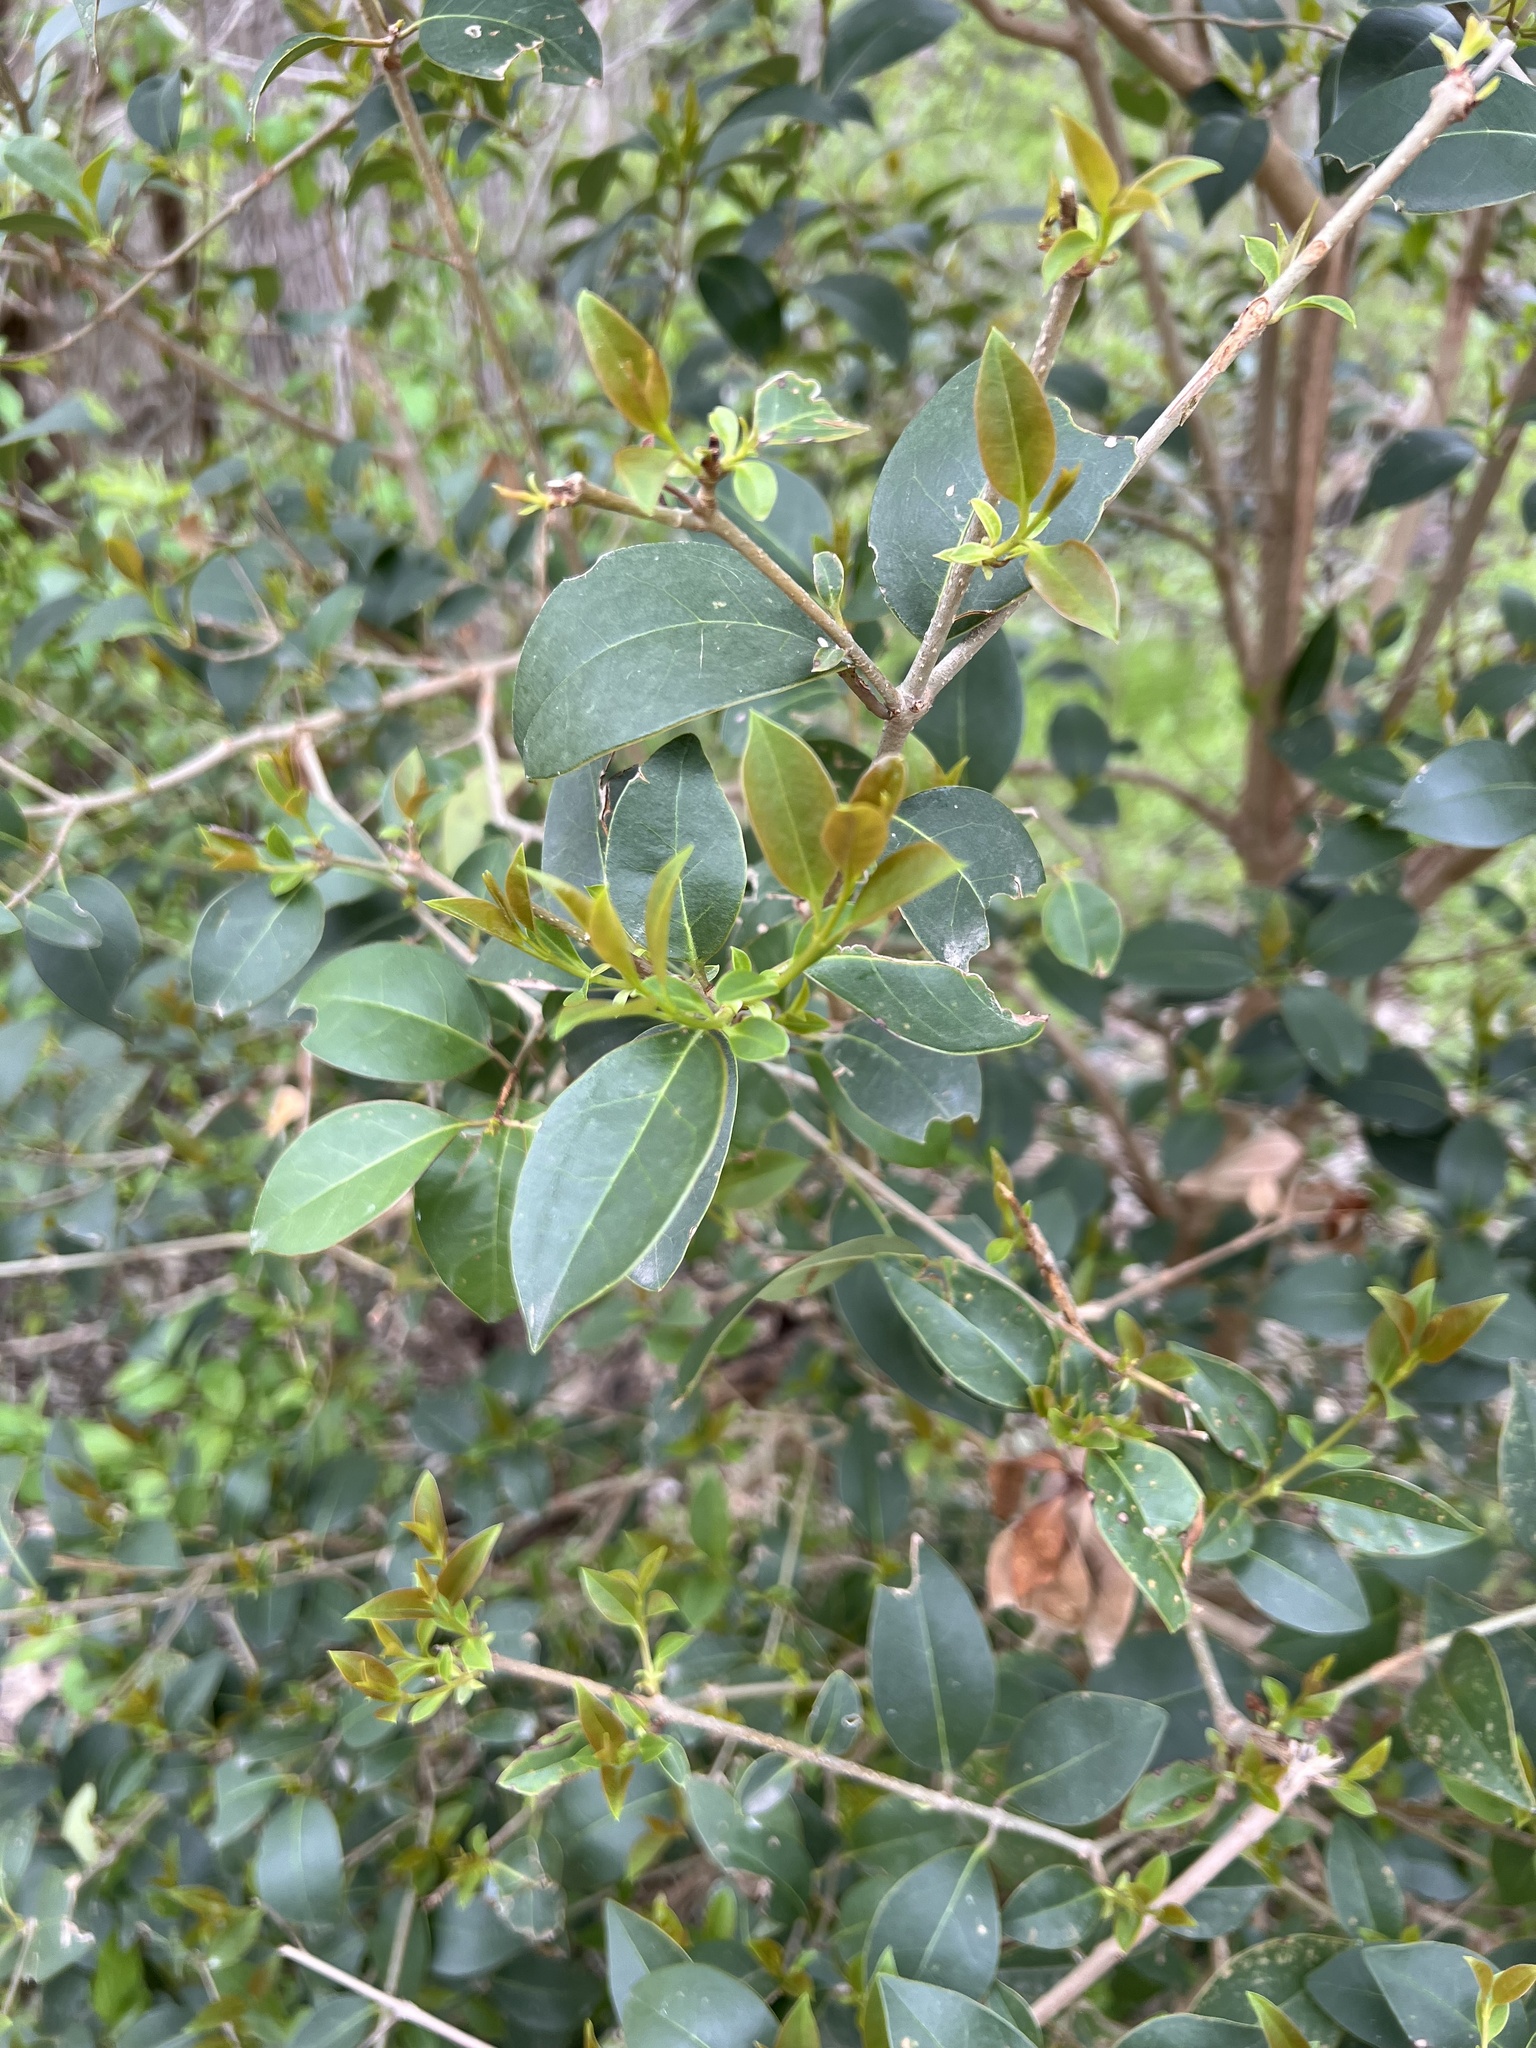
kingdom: Plantae
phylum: Tracheophyta
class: Magnoliopsida
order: Lamiales
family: Oleaceae
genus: Ligustrum
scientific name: Ligustrum lucidum
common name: Glossy privet
